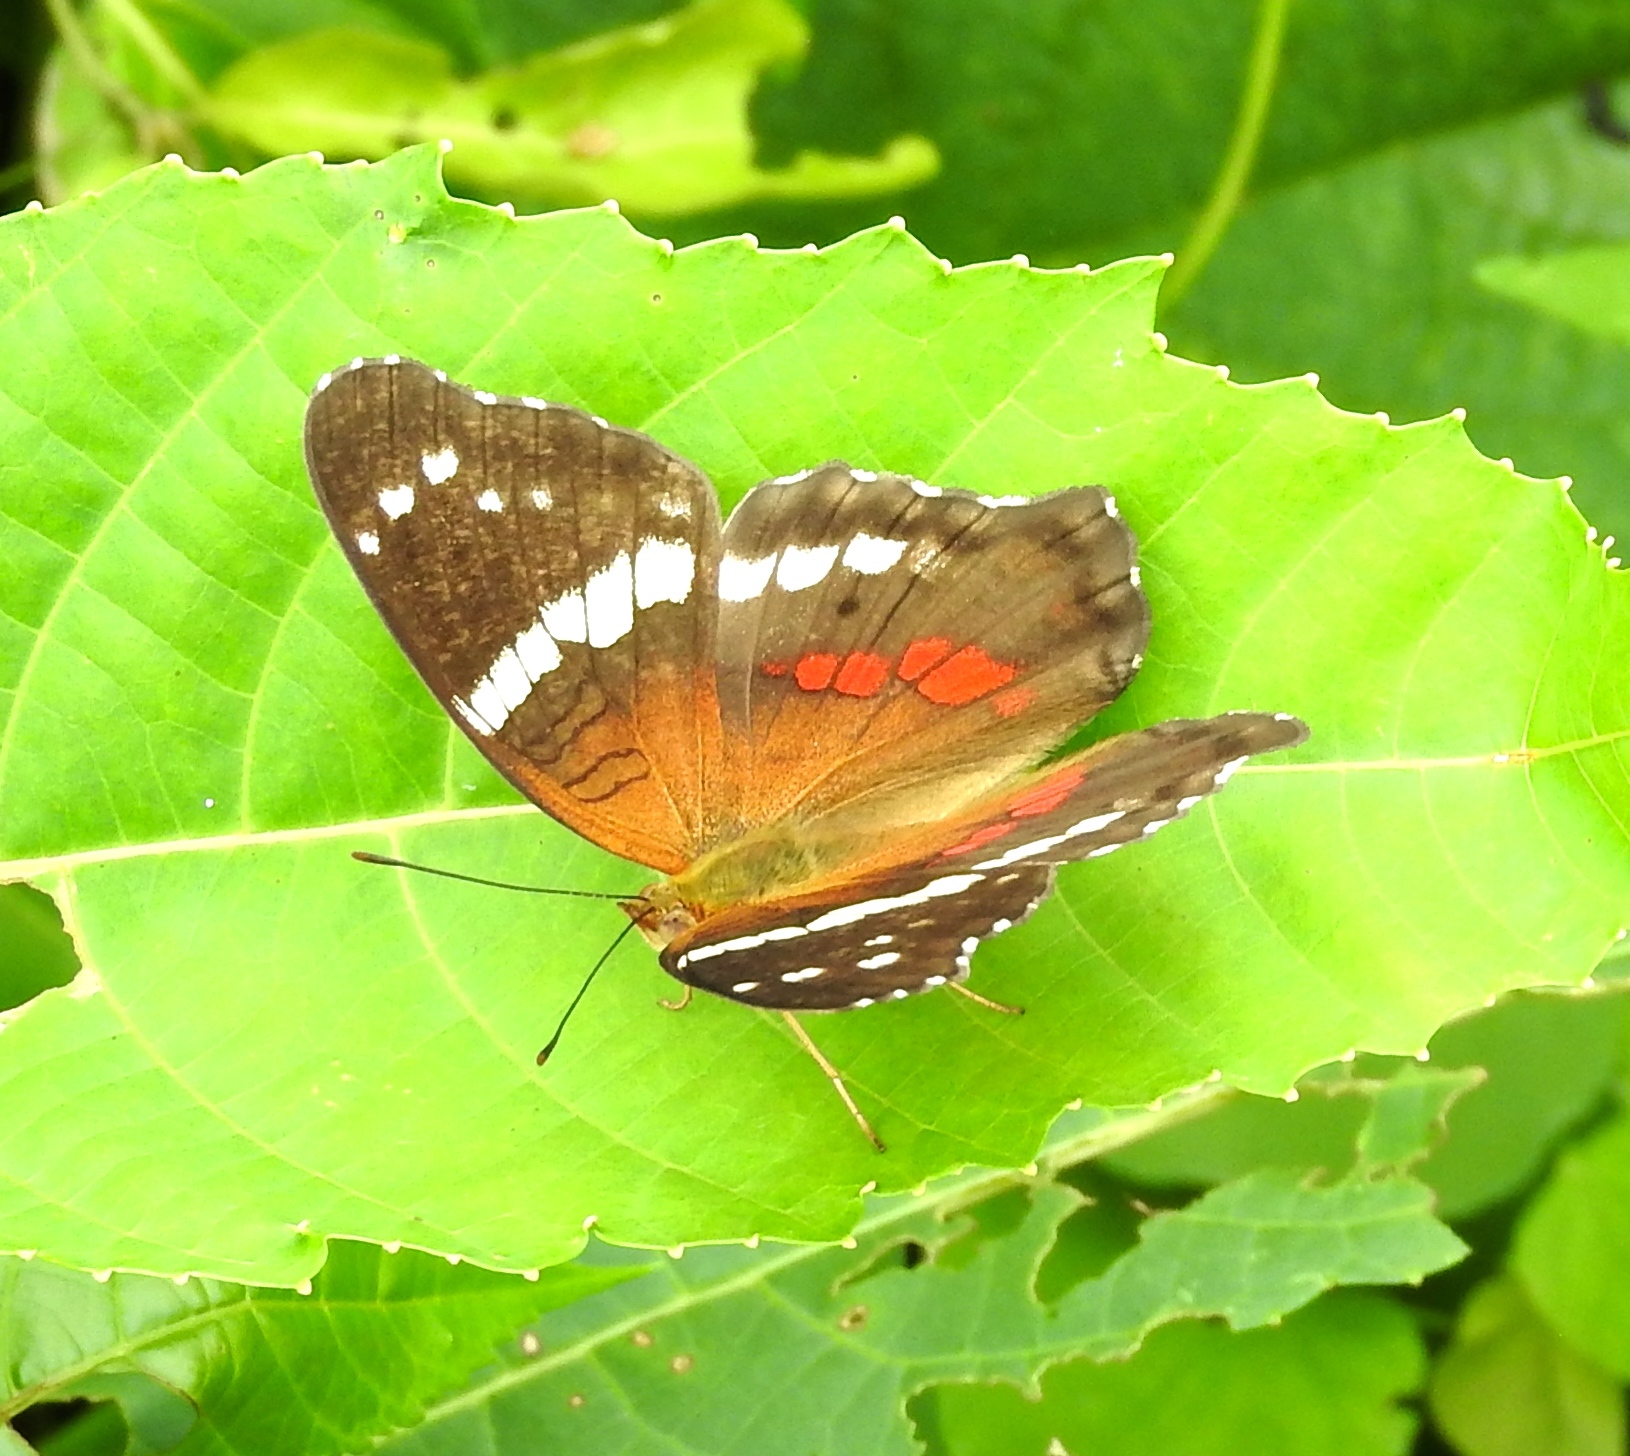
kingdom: Animalia
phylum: Arthropoda
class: Insecta
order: Lepidoptera
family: Nymphalidae
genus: Anartia
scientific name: Anartia fatima
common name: Banded peacock
